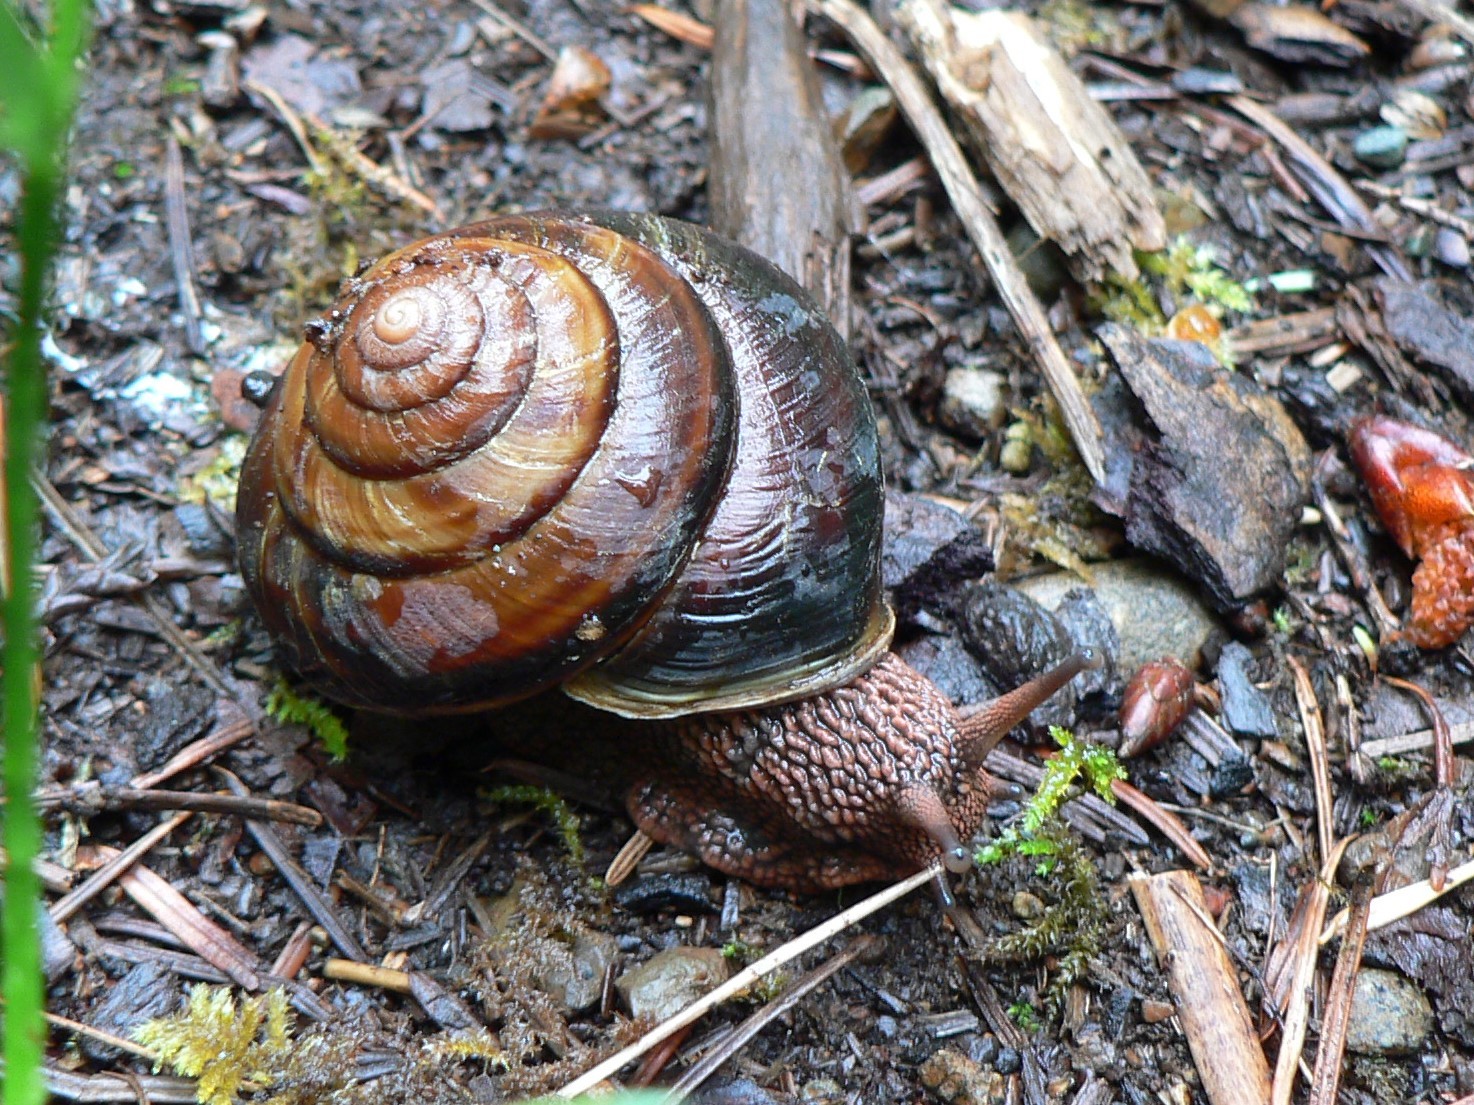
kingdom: Animalia
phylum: Mollusca
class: Gastropoda
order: Stylommatophora
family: Xanthonychidae
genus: Monadenia
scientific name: Monadenia fidelis
